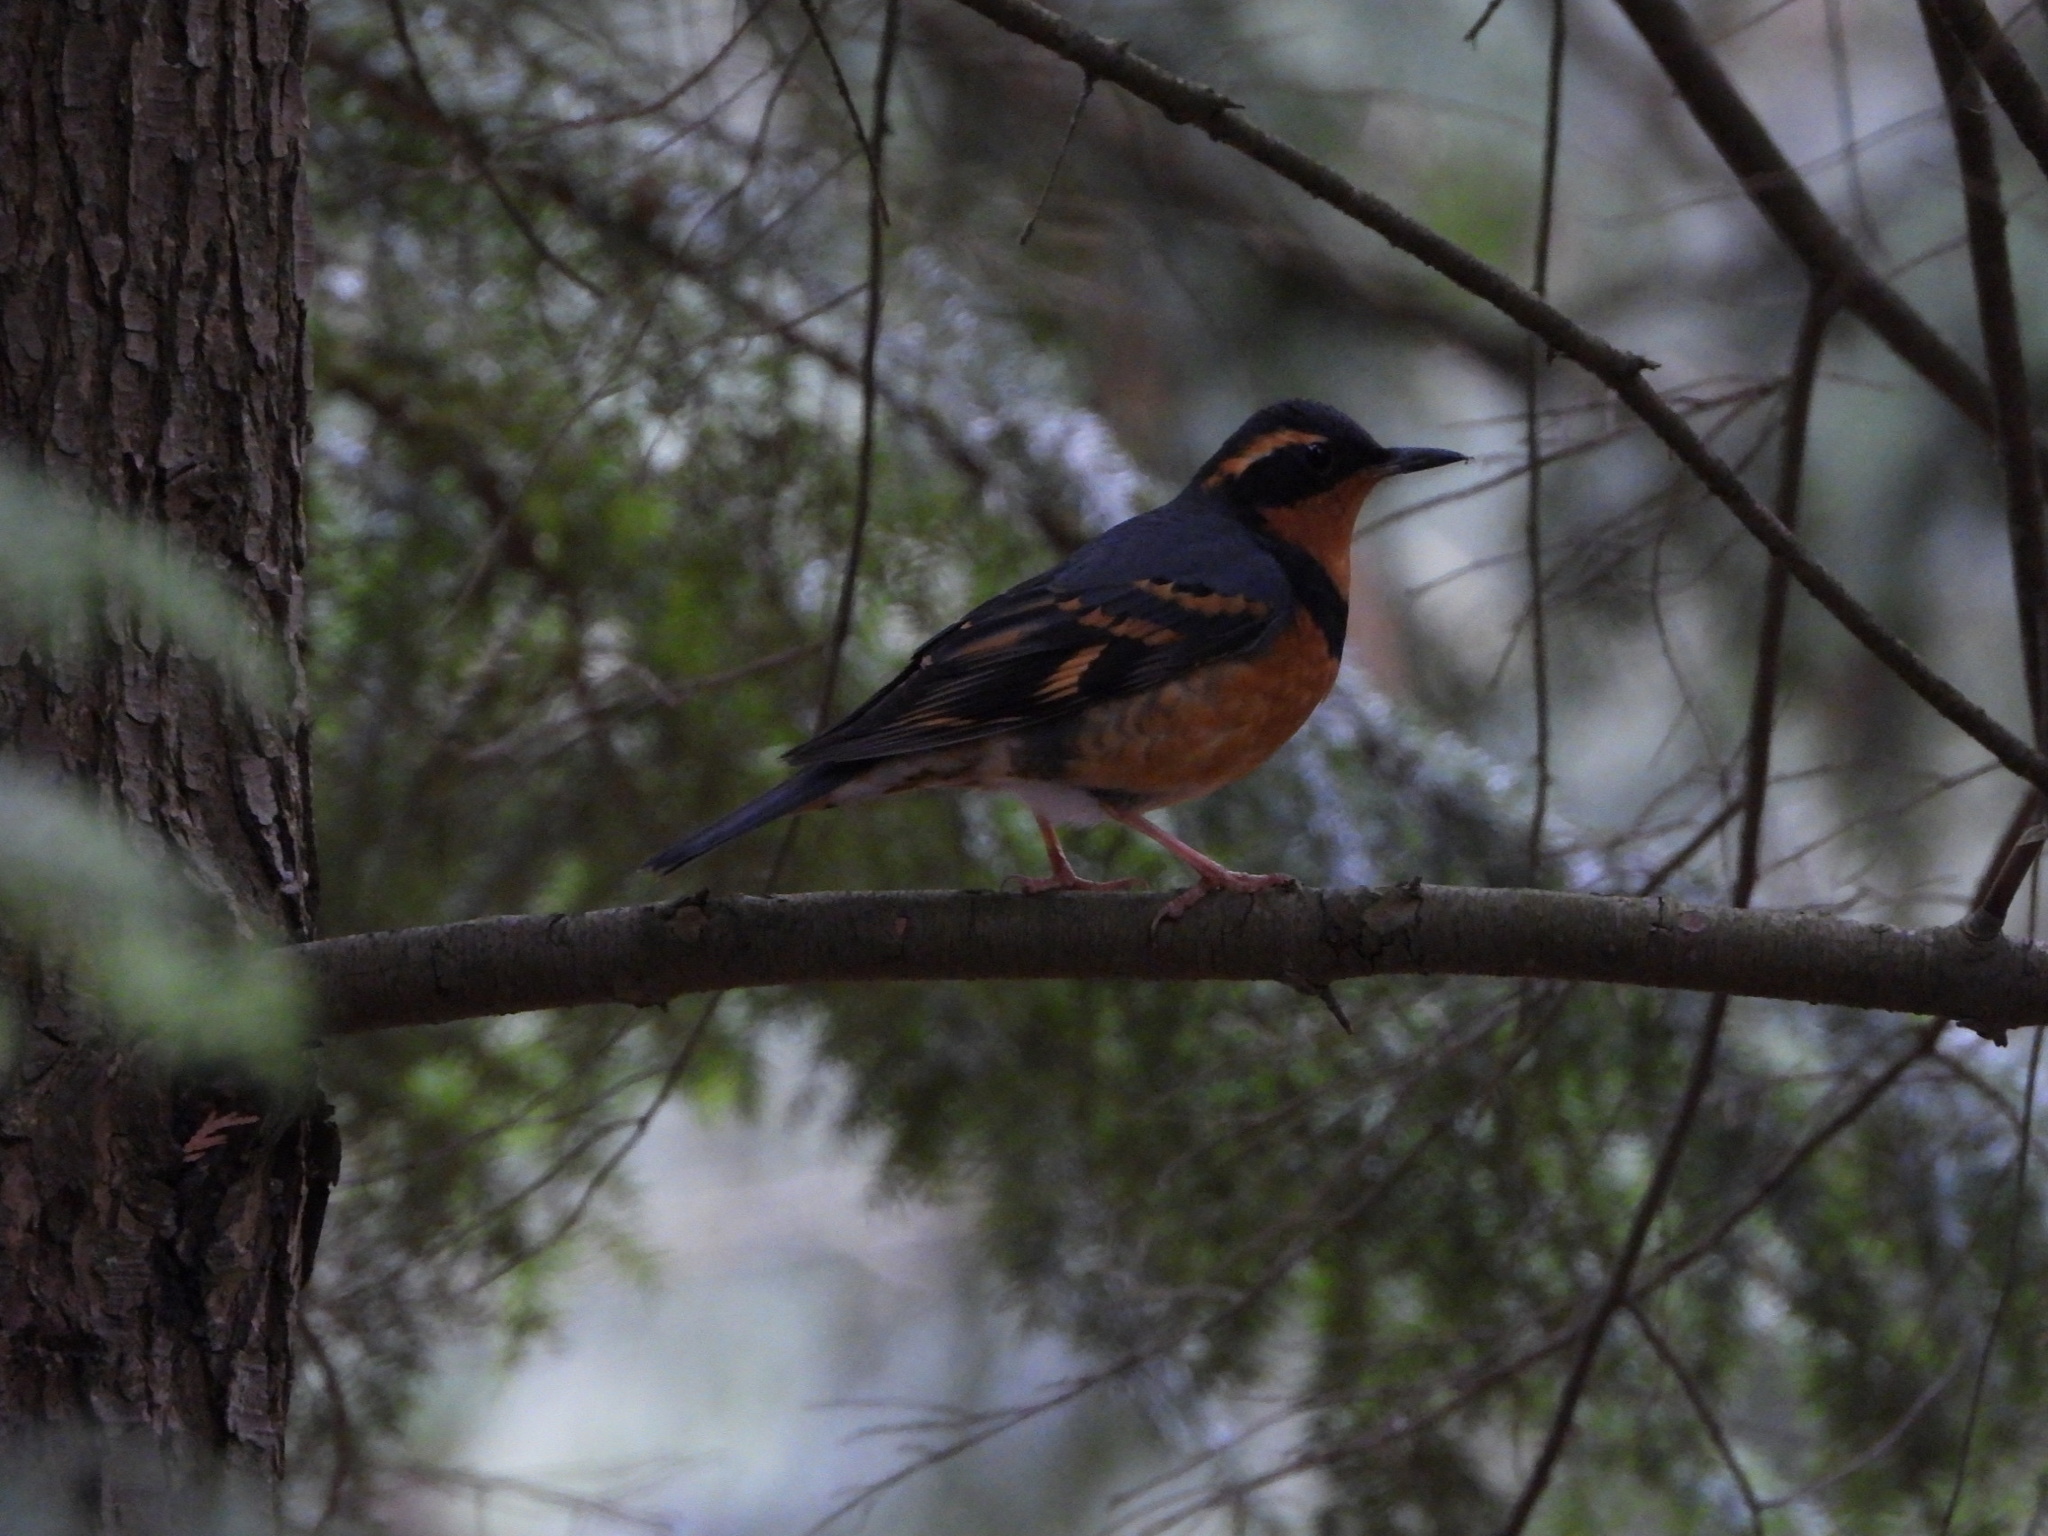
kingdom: Animalia
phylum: Chordata
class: Aves
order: Passeriformes
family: Turdidae
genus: Ixoreus
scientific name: Ixoreus naevius
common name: Varied thrush
